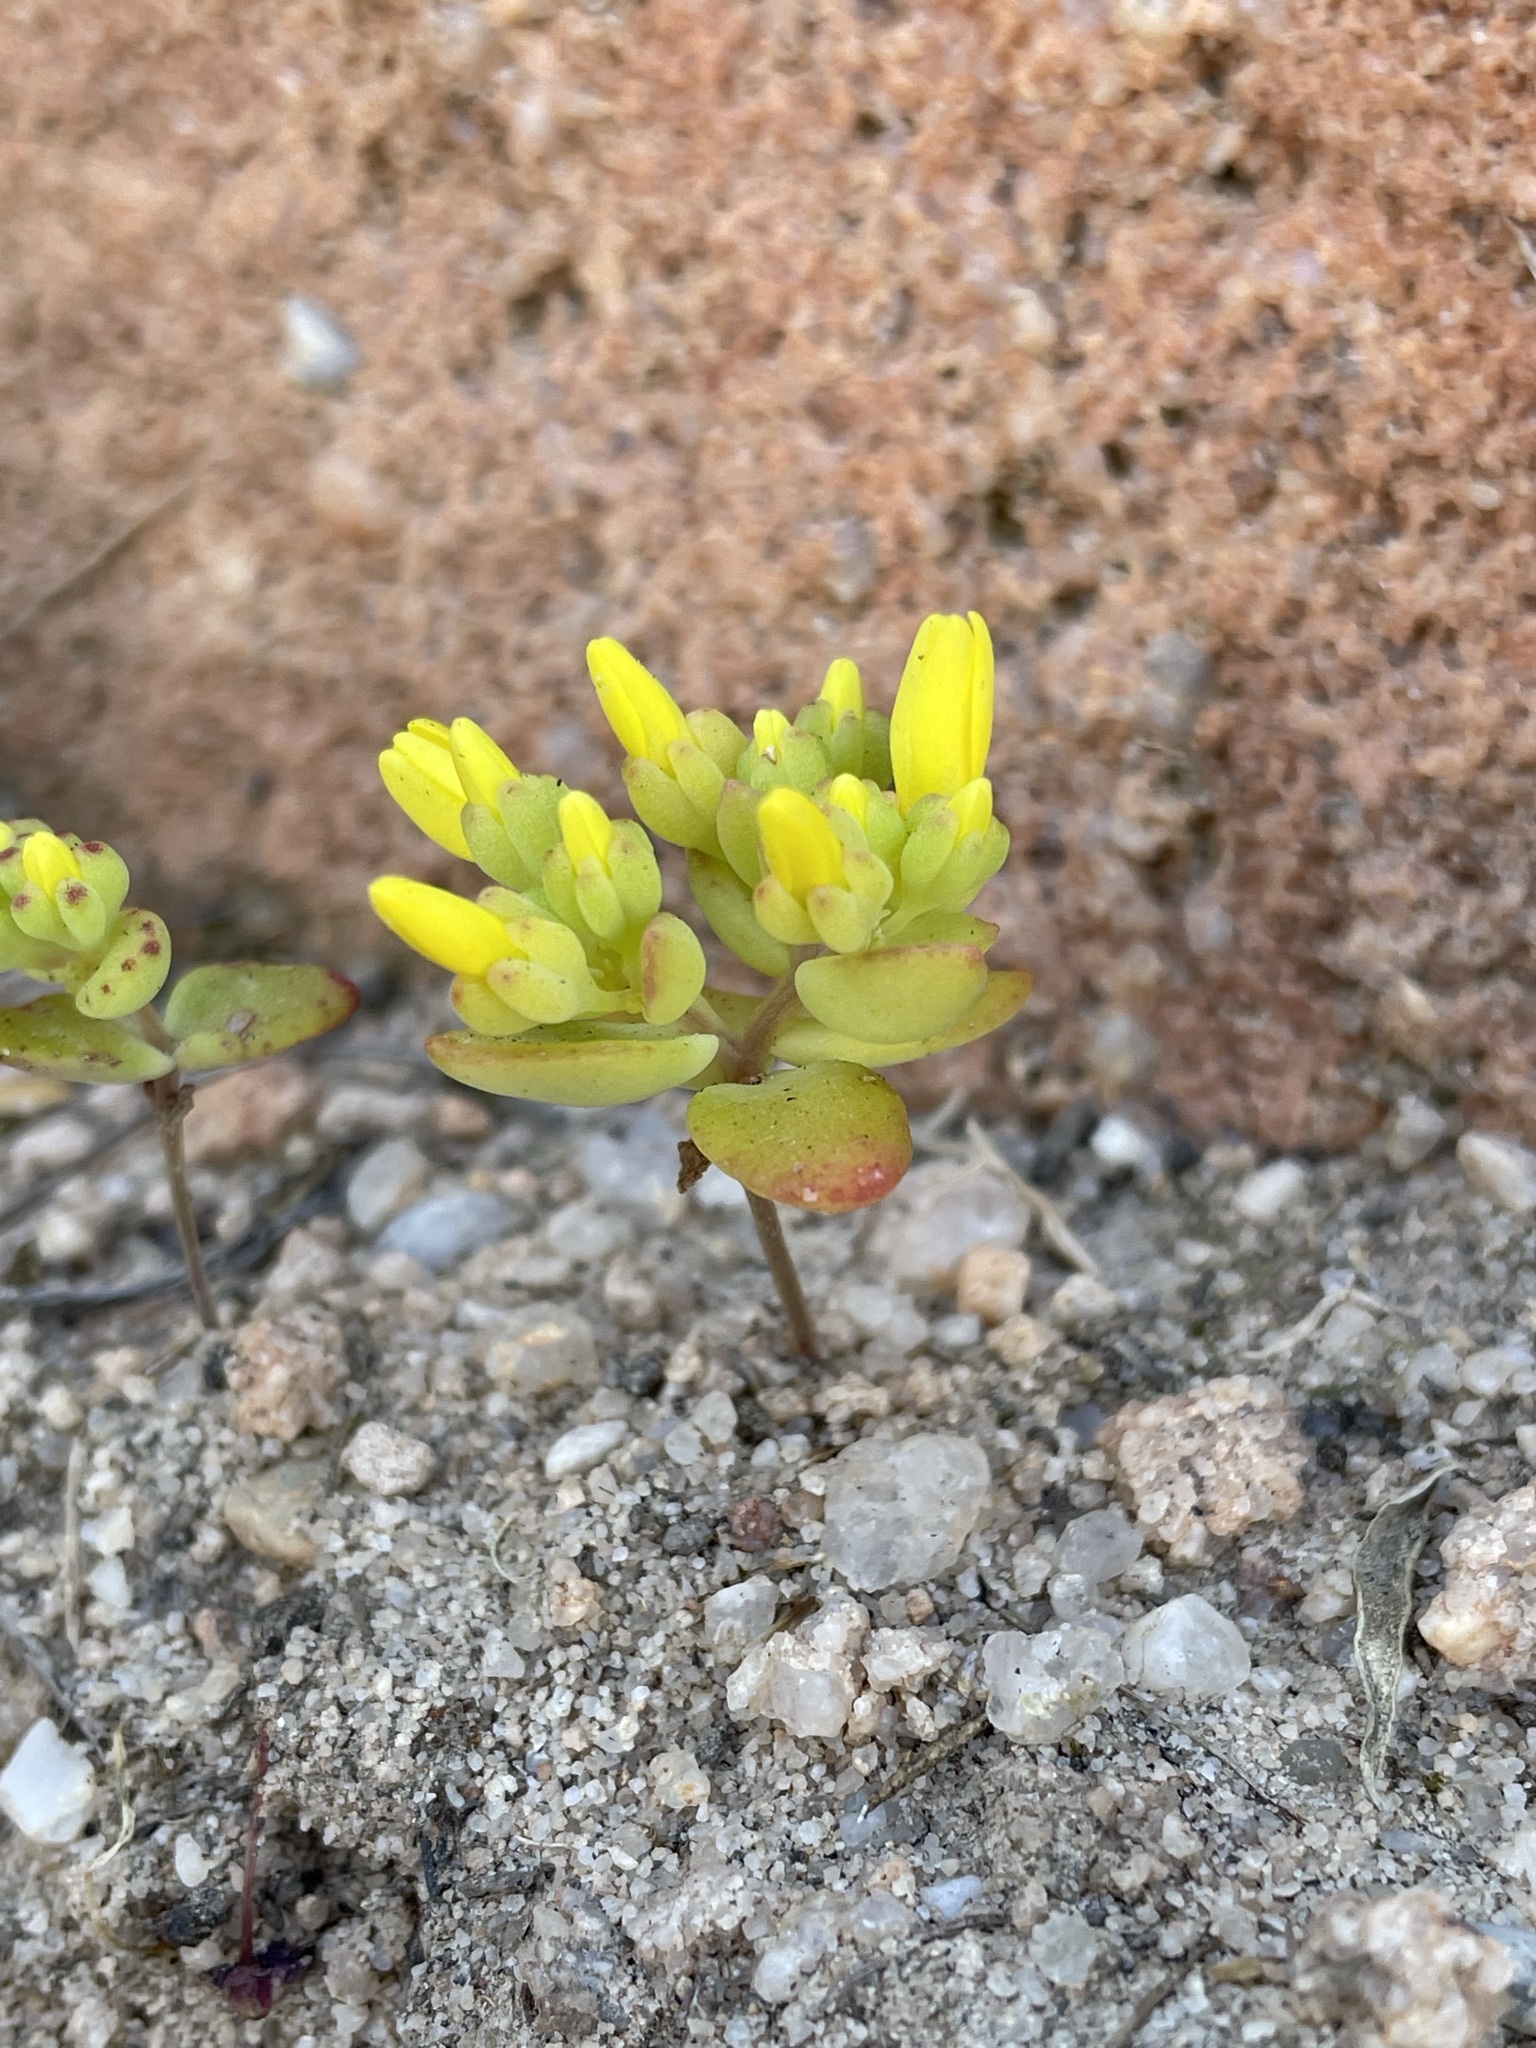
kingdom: Plantae
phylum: Tracheophyta
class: Magnoliopsida
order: Saxifragales
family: Crassulaceae
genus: Crassula
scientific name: Crassula sebaeoides
